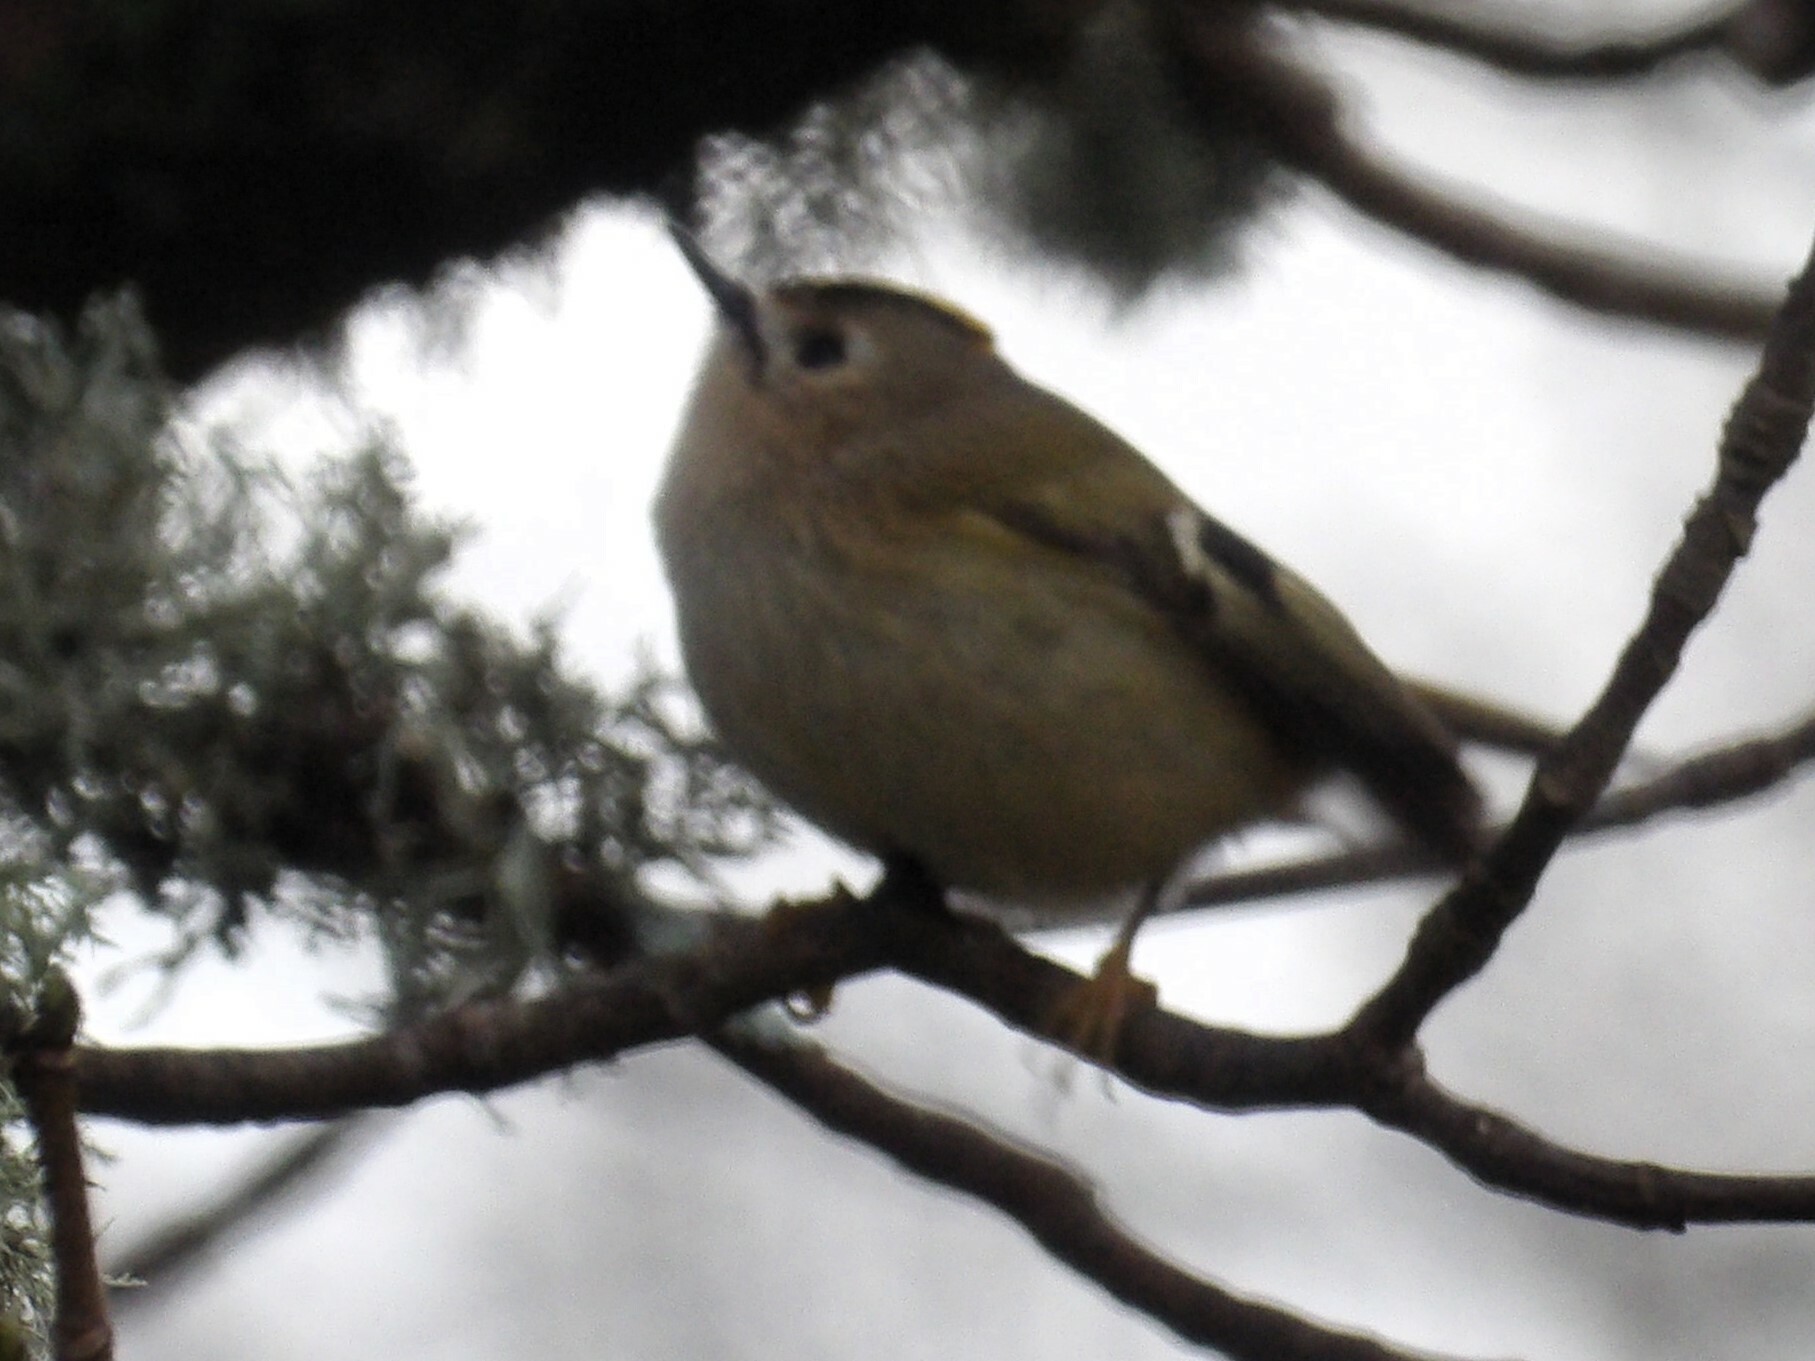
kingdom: Animalia
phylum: Chordata
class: Aves
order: Passeriformes
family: Regulidae
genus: Regulus
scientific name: Regulus regulus
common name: Goldcrest
